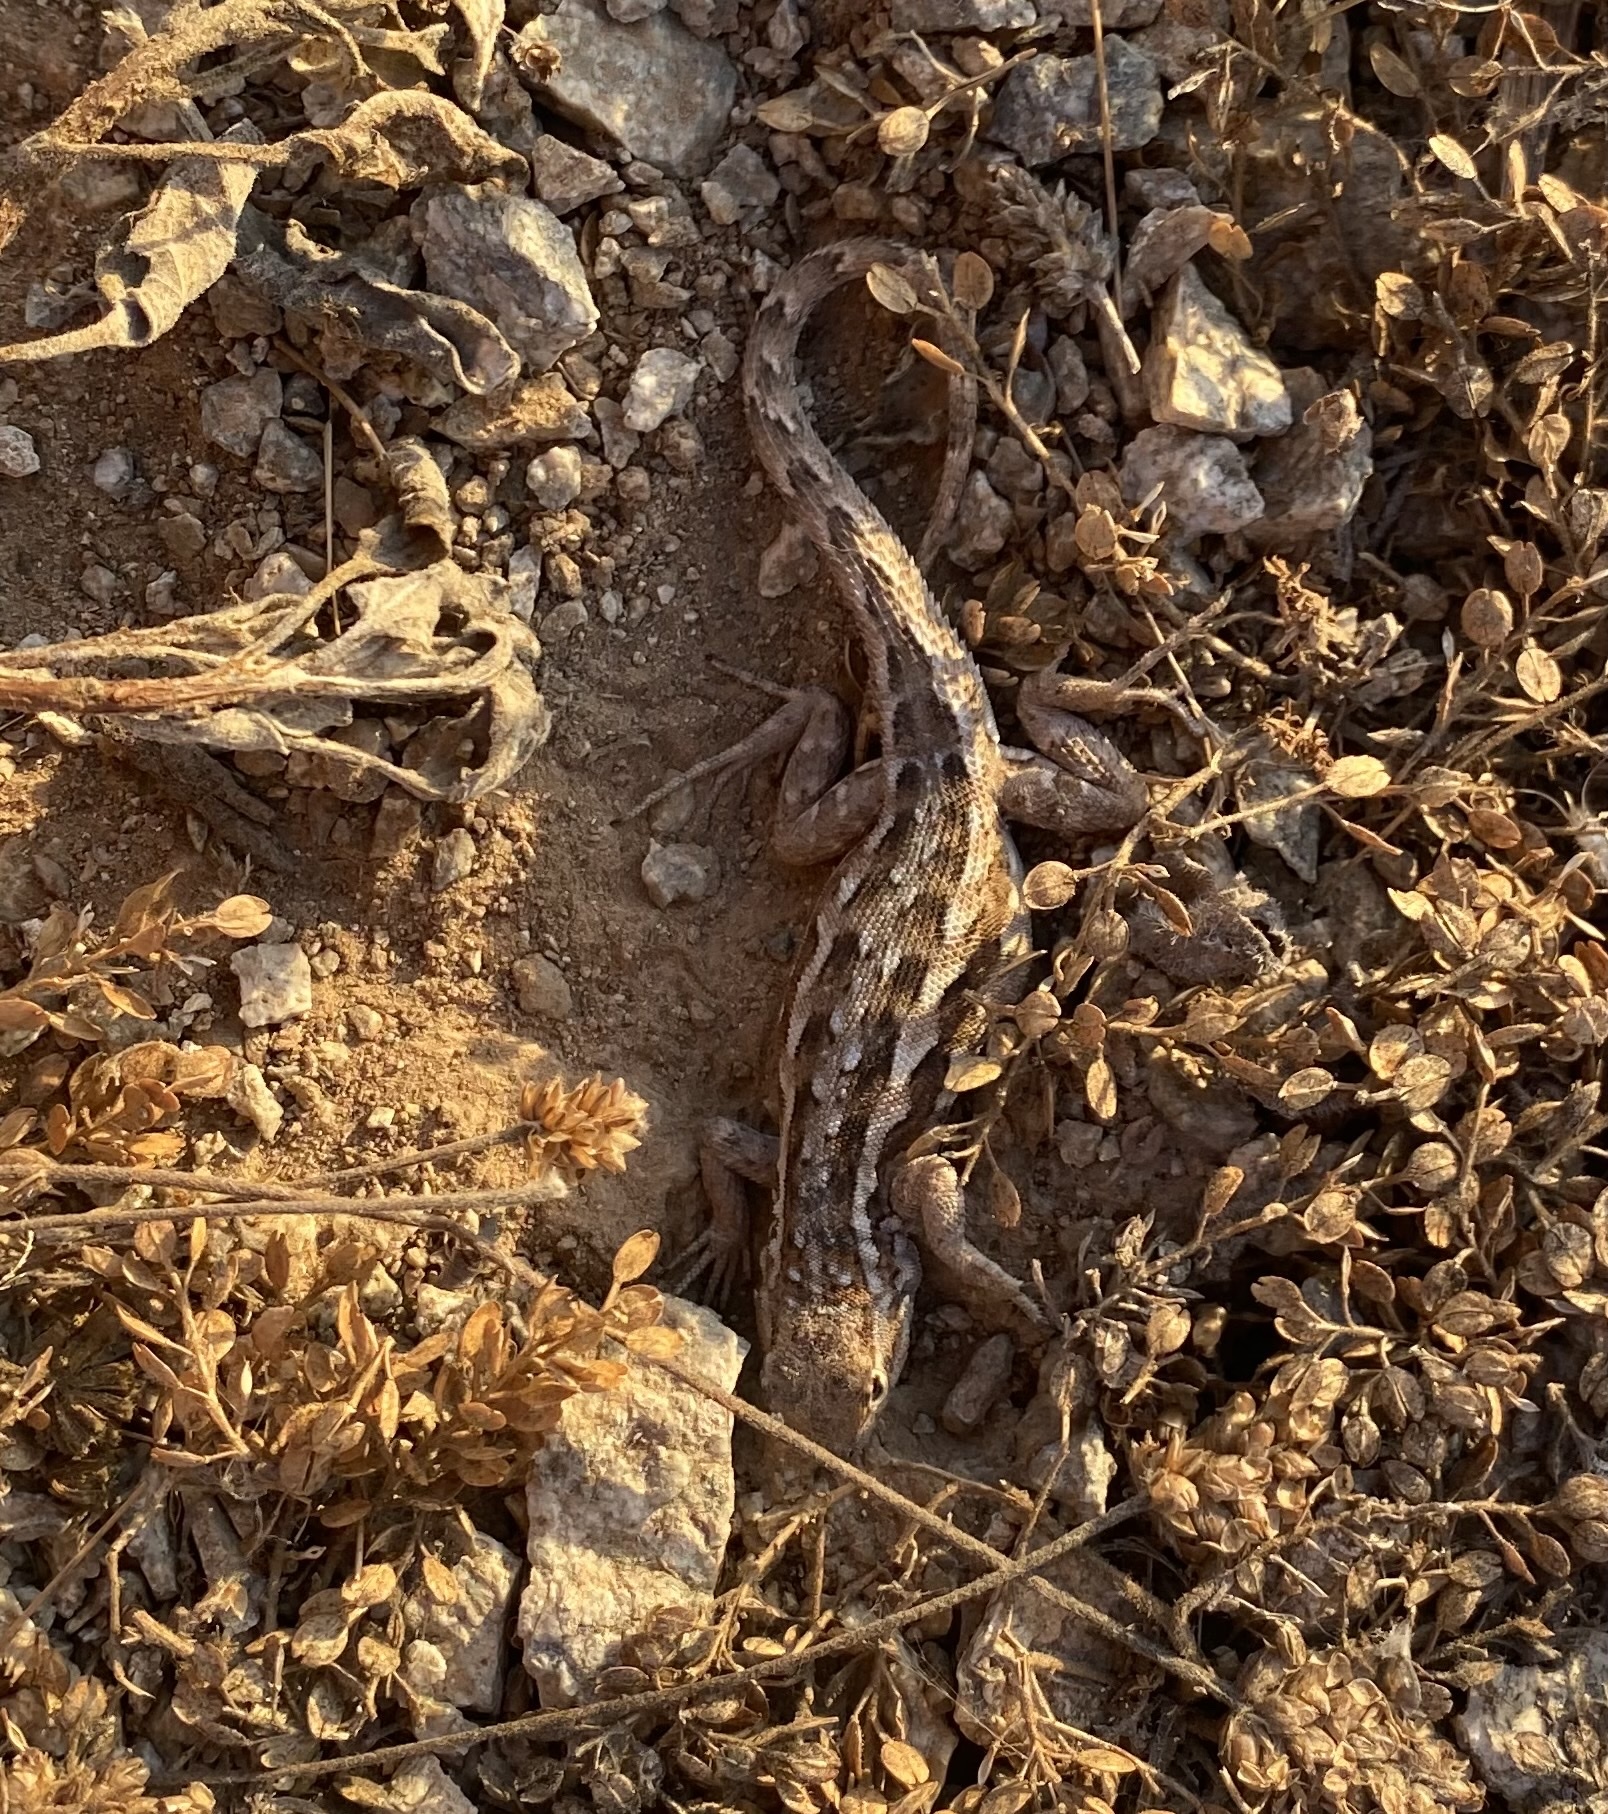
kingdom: Animalia
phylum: Chordata
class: Squamata
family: Phrynosomatidae
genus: Uta
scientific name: Uta stansburiana
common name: Side-blotched lizard
